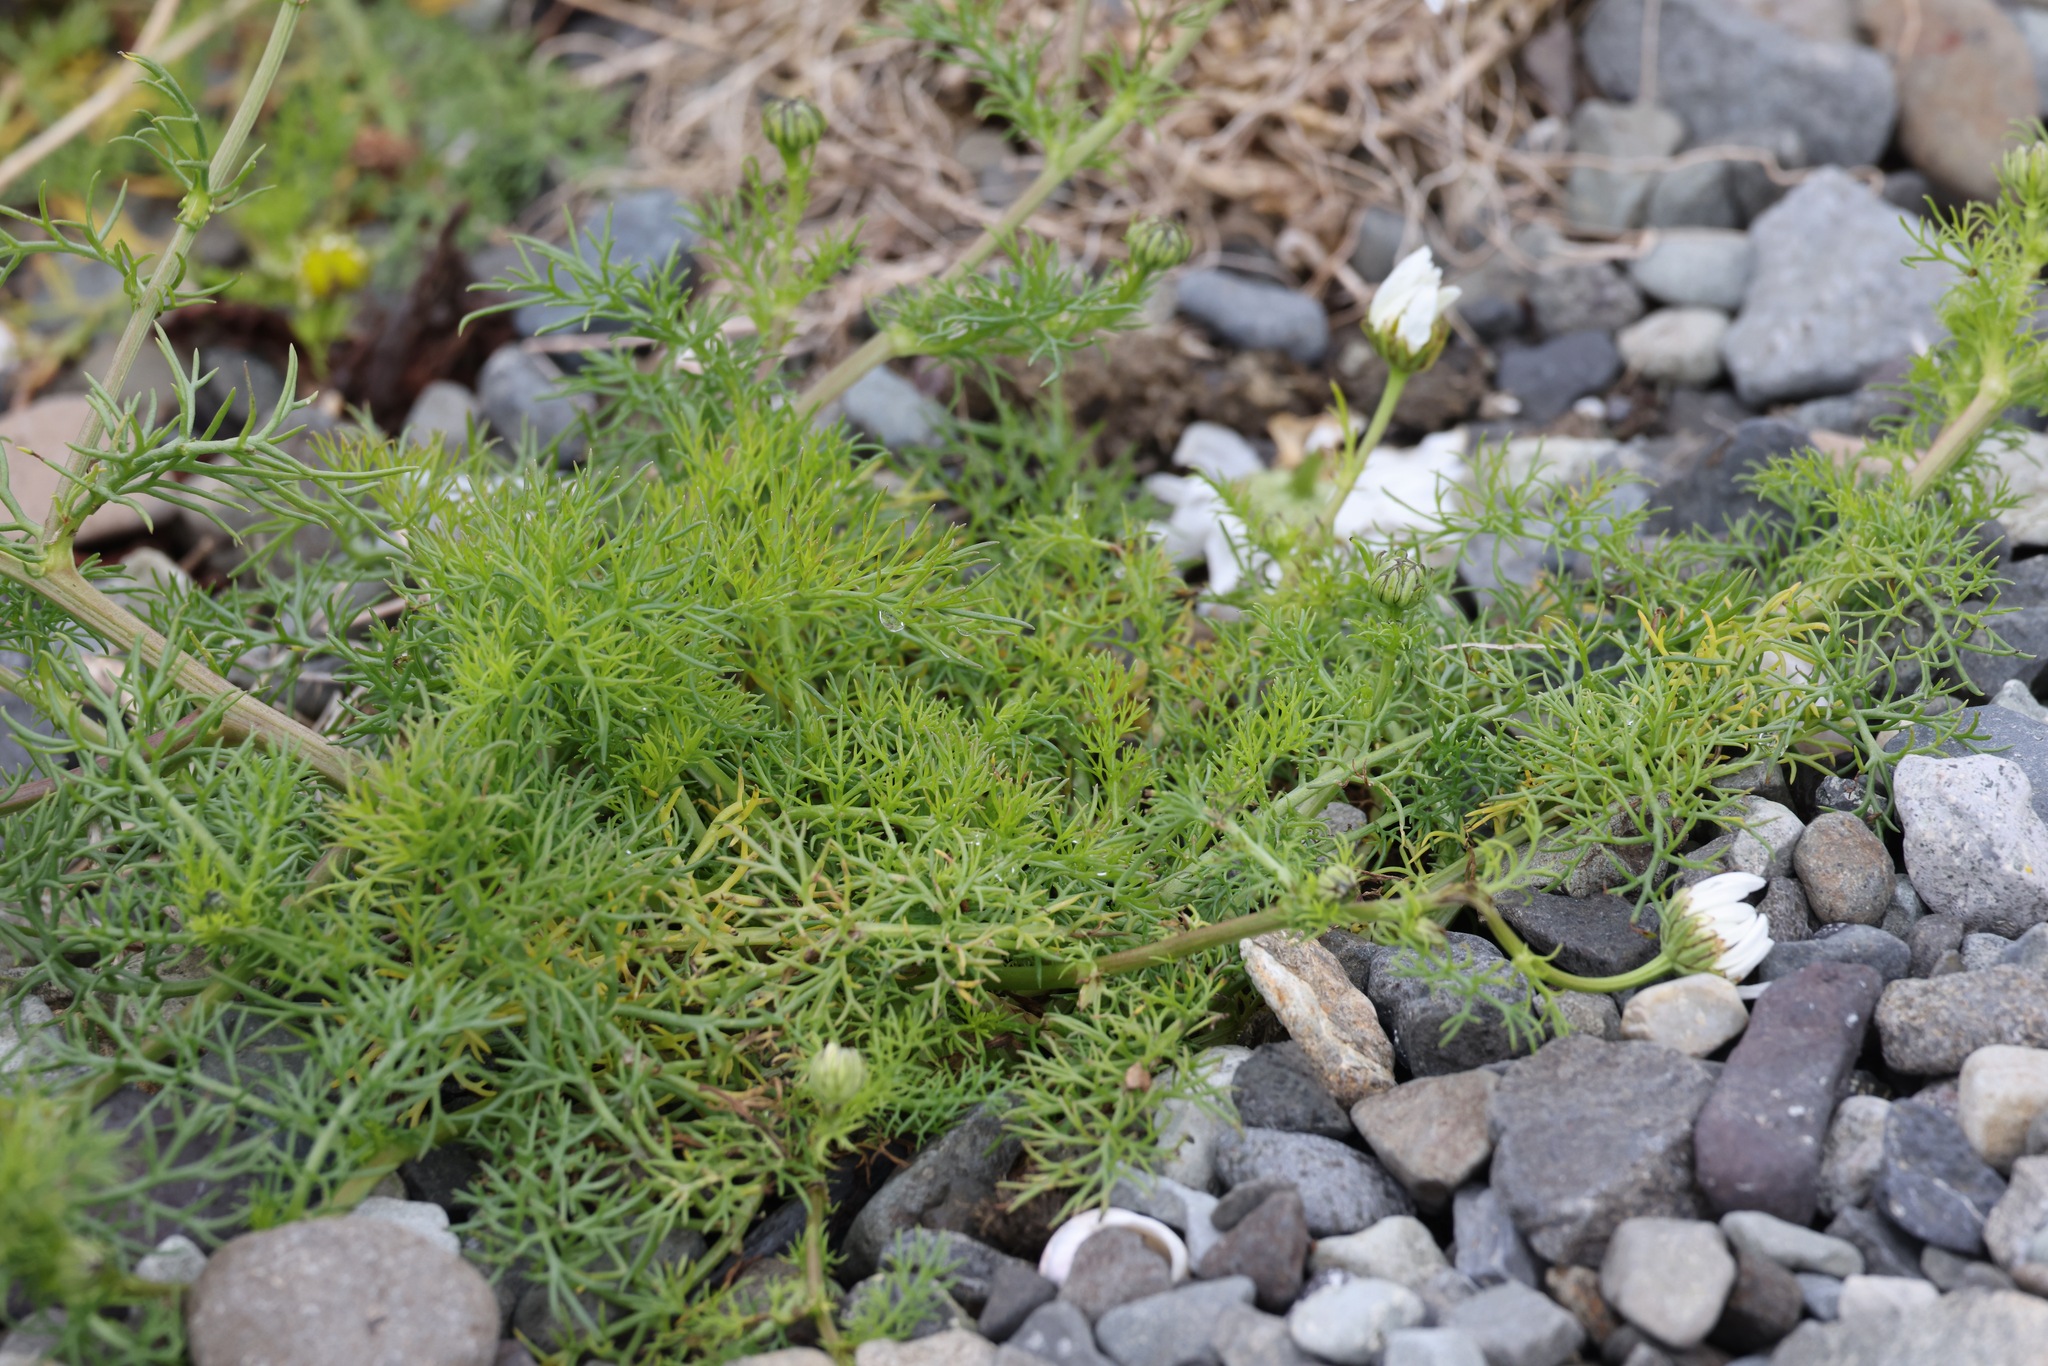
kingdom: Plantae
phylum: Tracheophyta
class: Magnoliopsida
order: Asterales
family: Asteraceae
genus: Tripleurospermum
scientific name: Tripleurospermum maritimum
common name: Sea mayweed
